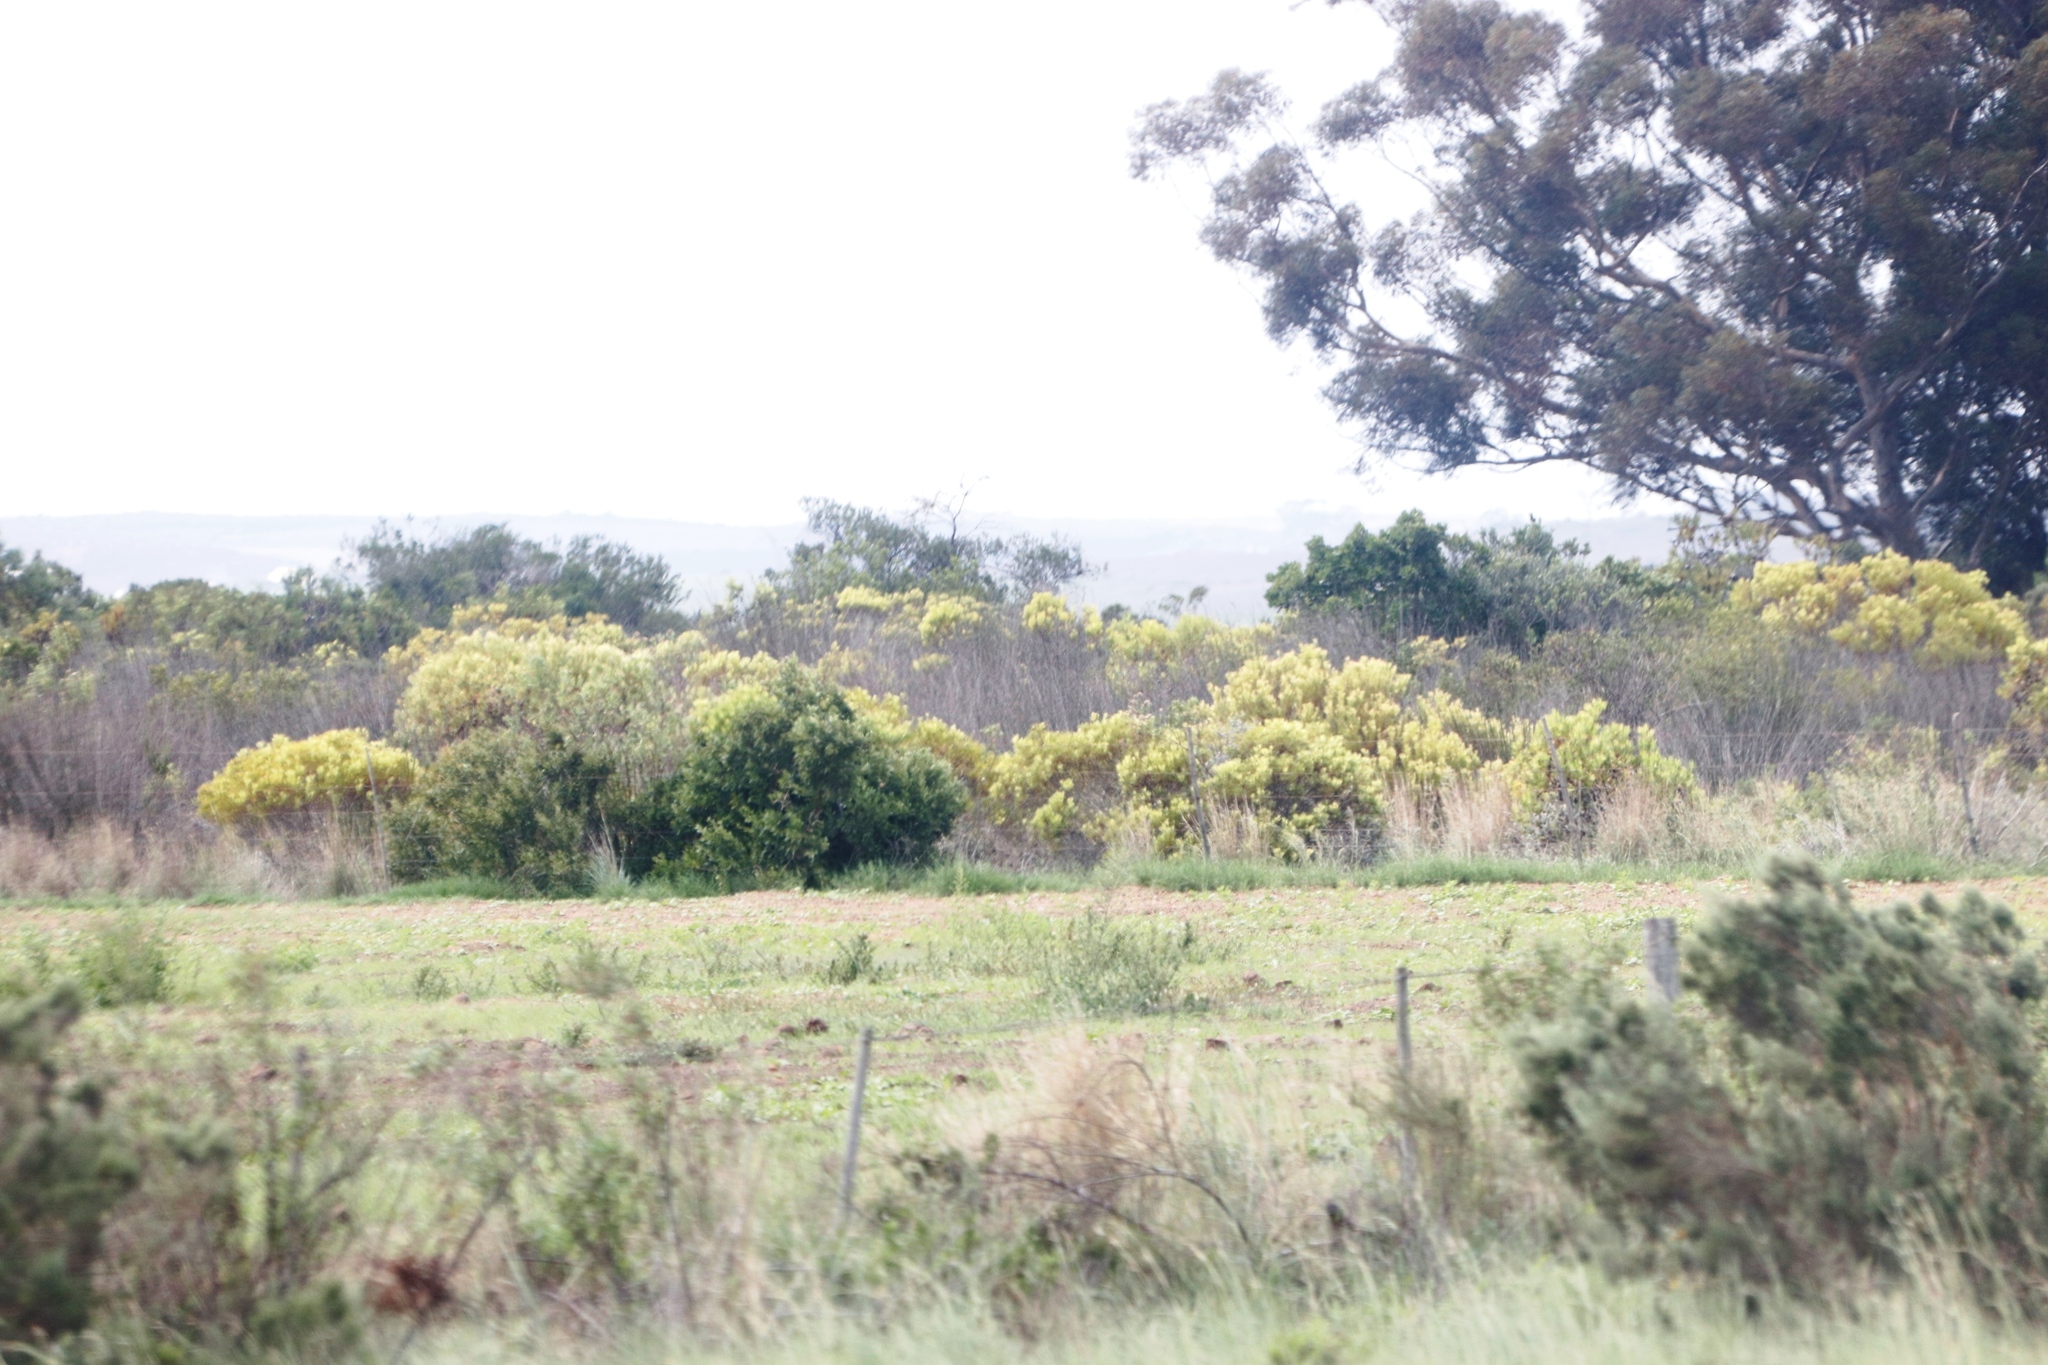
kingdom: Plantae
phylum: Tracheophyta
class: Magnoliopsida
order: Proteales
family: Proteaceae
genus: Leucadendron
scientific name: Leucadendron salignum
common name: Common sunshine conebush
